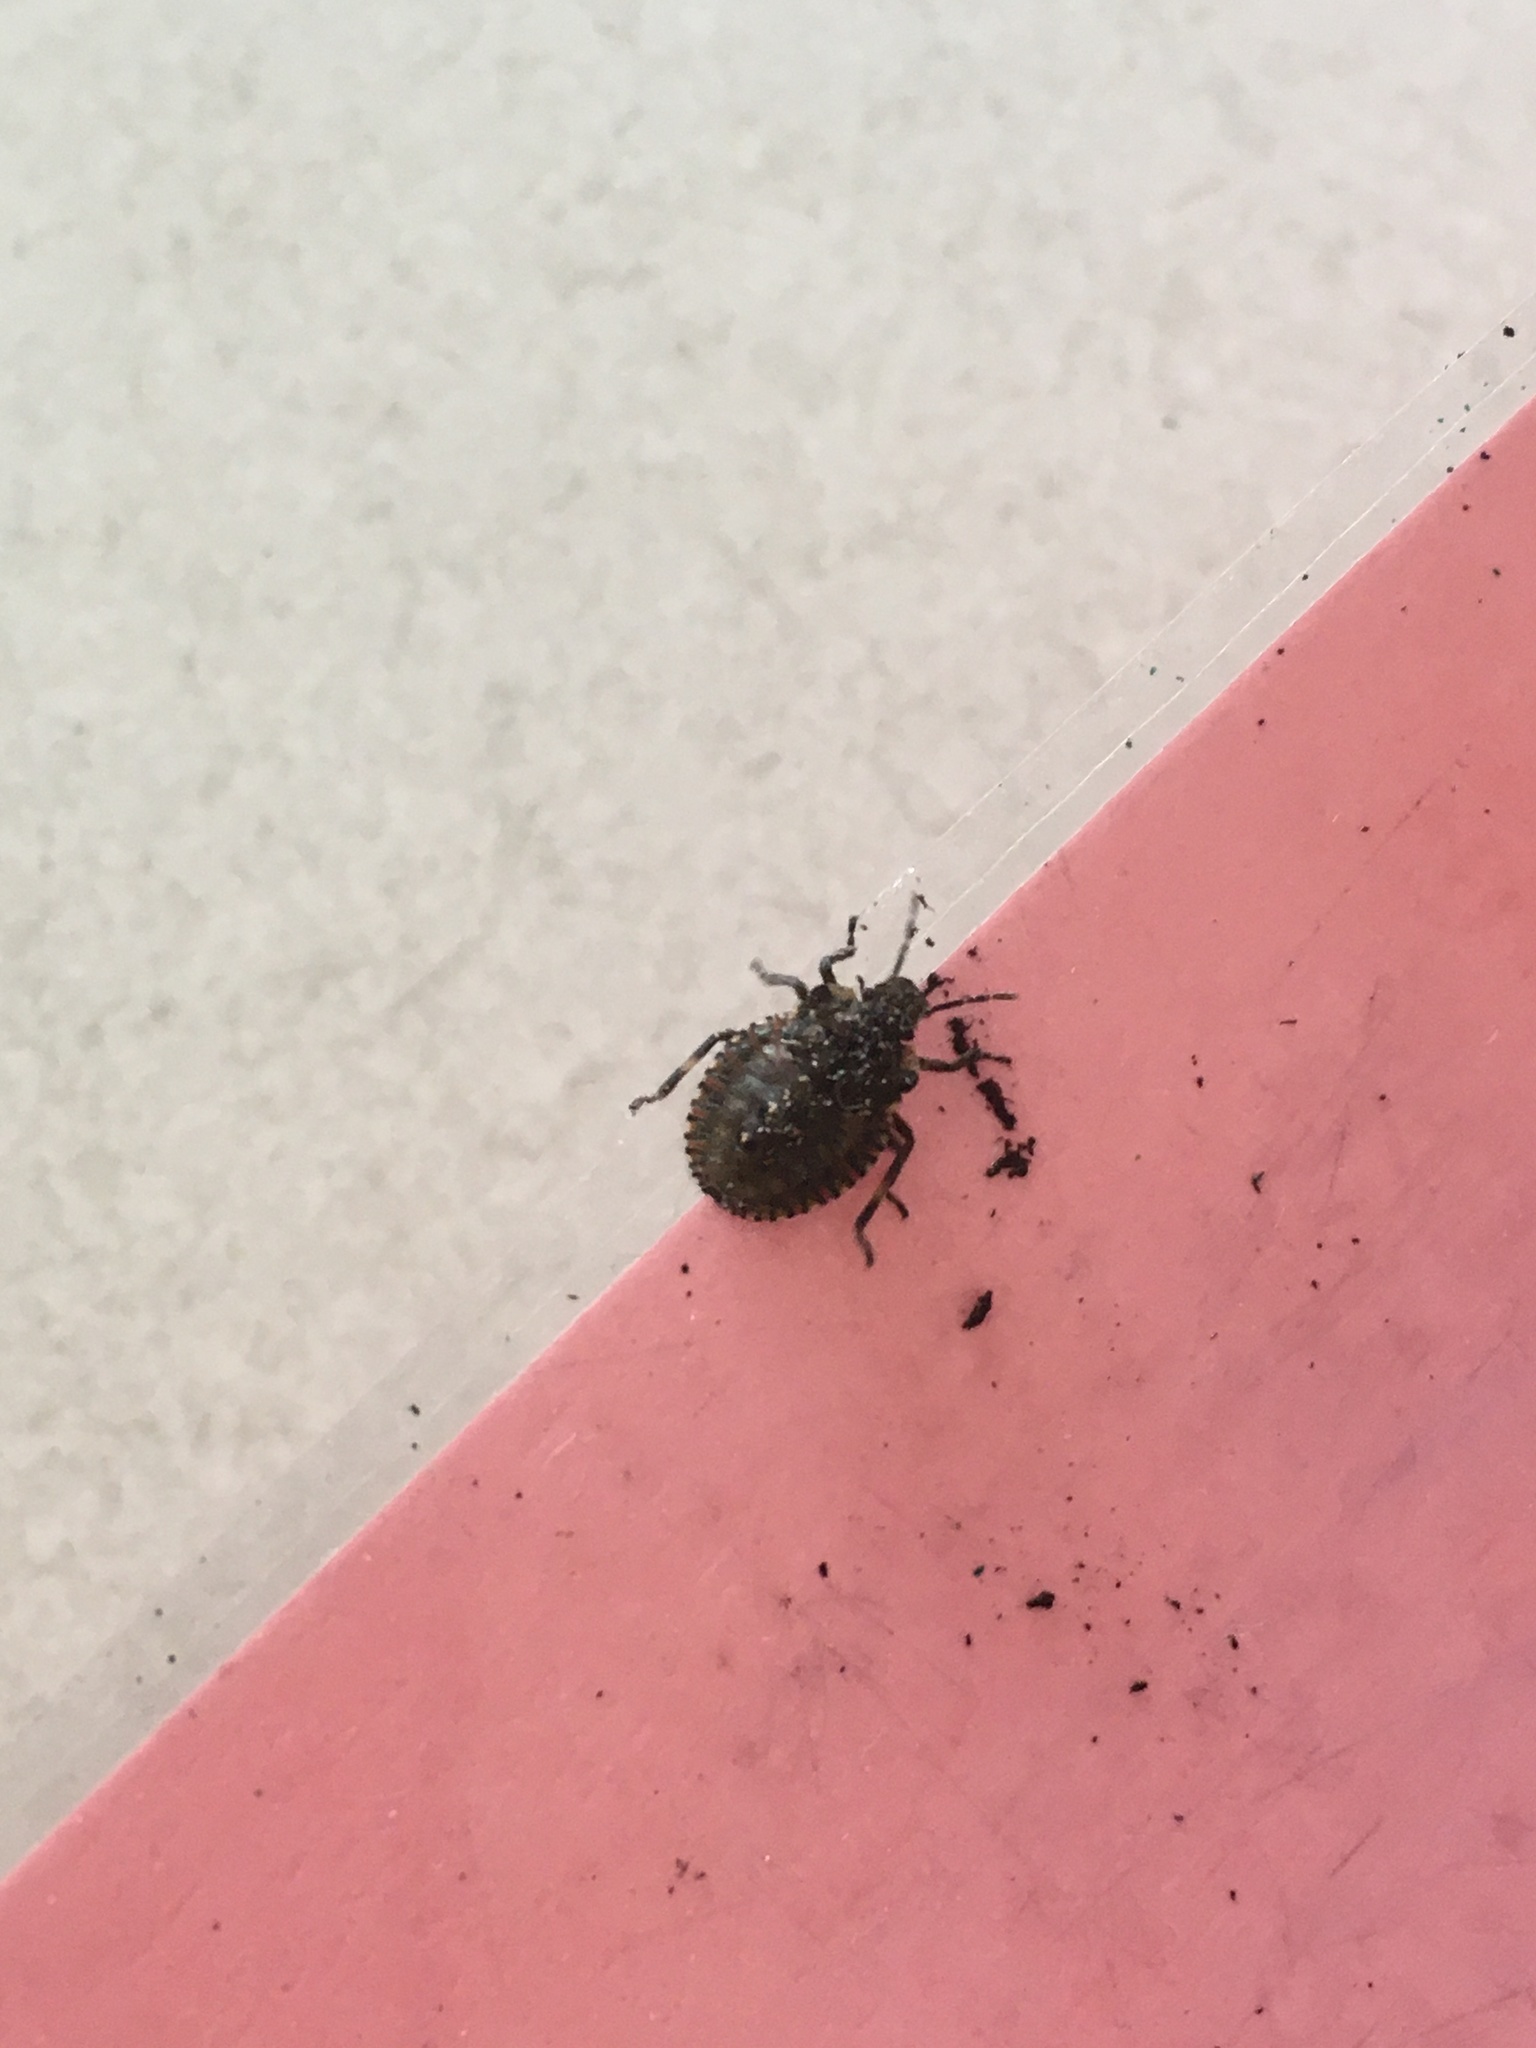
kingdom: Animalia
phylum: Arthropoda
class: Insecta
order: Hemiptera
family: Pentatomidae
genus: Pentatoma
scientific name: Pentatoma rufipes
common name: Forest bug
